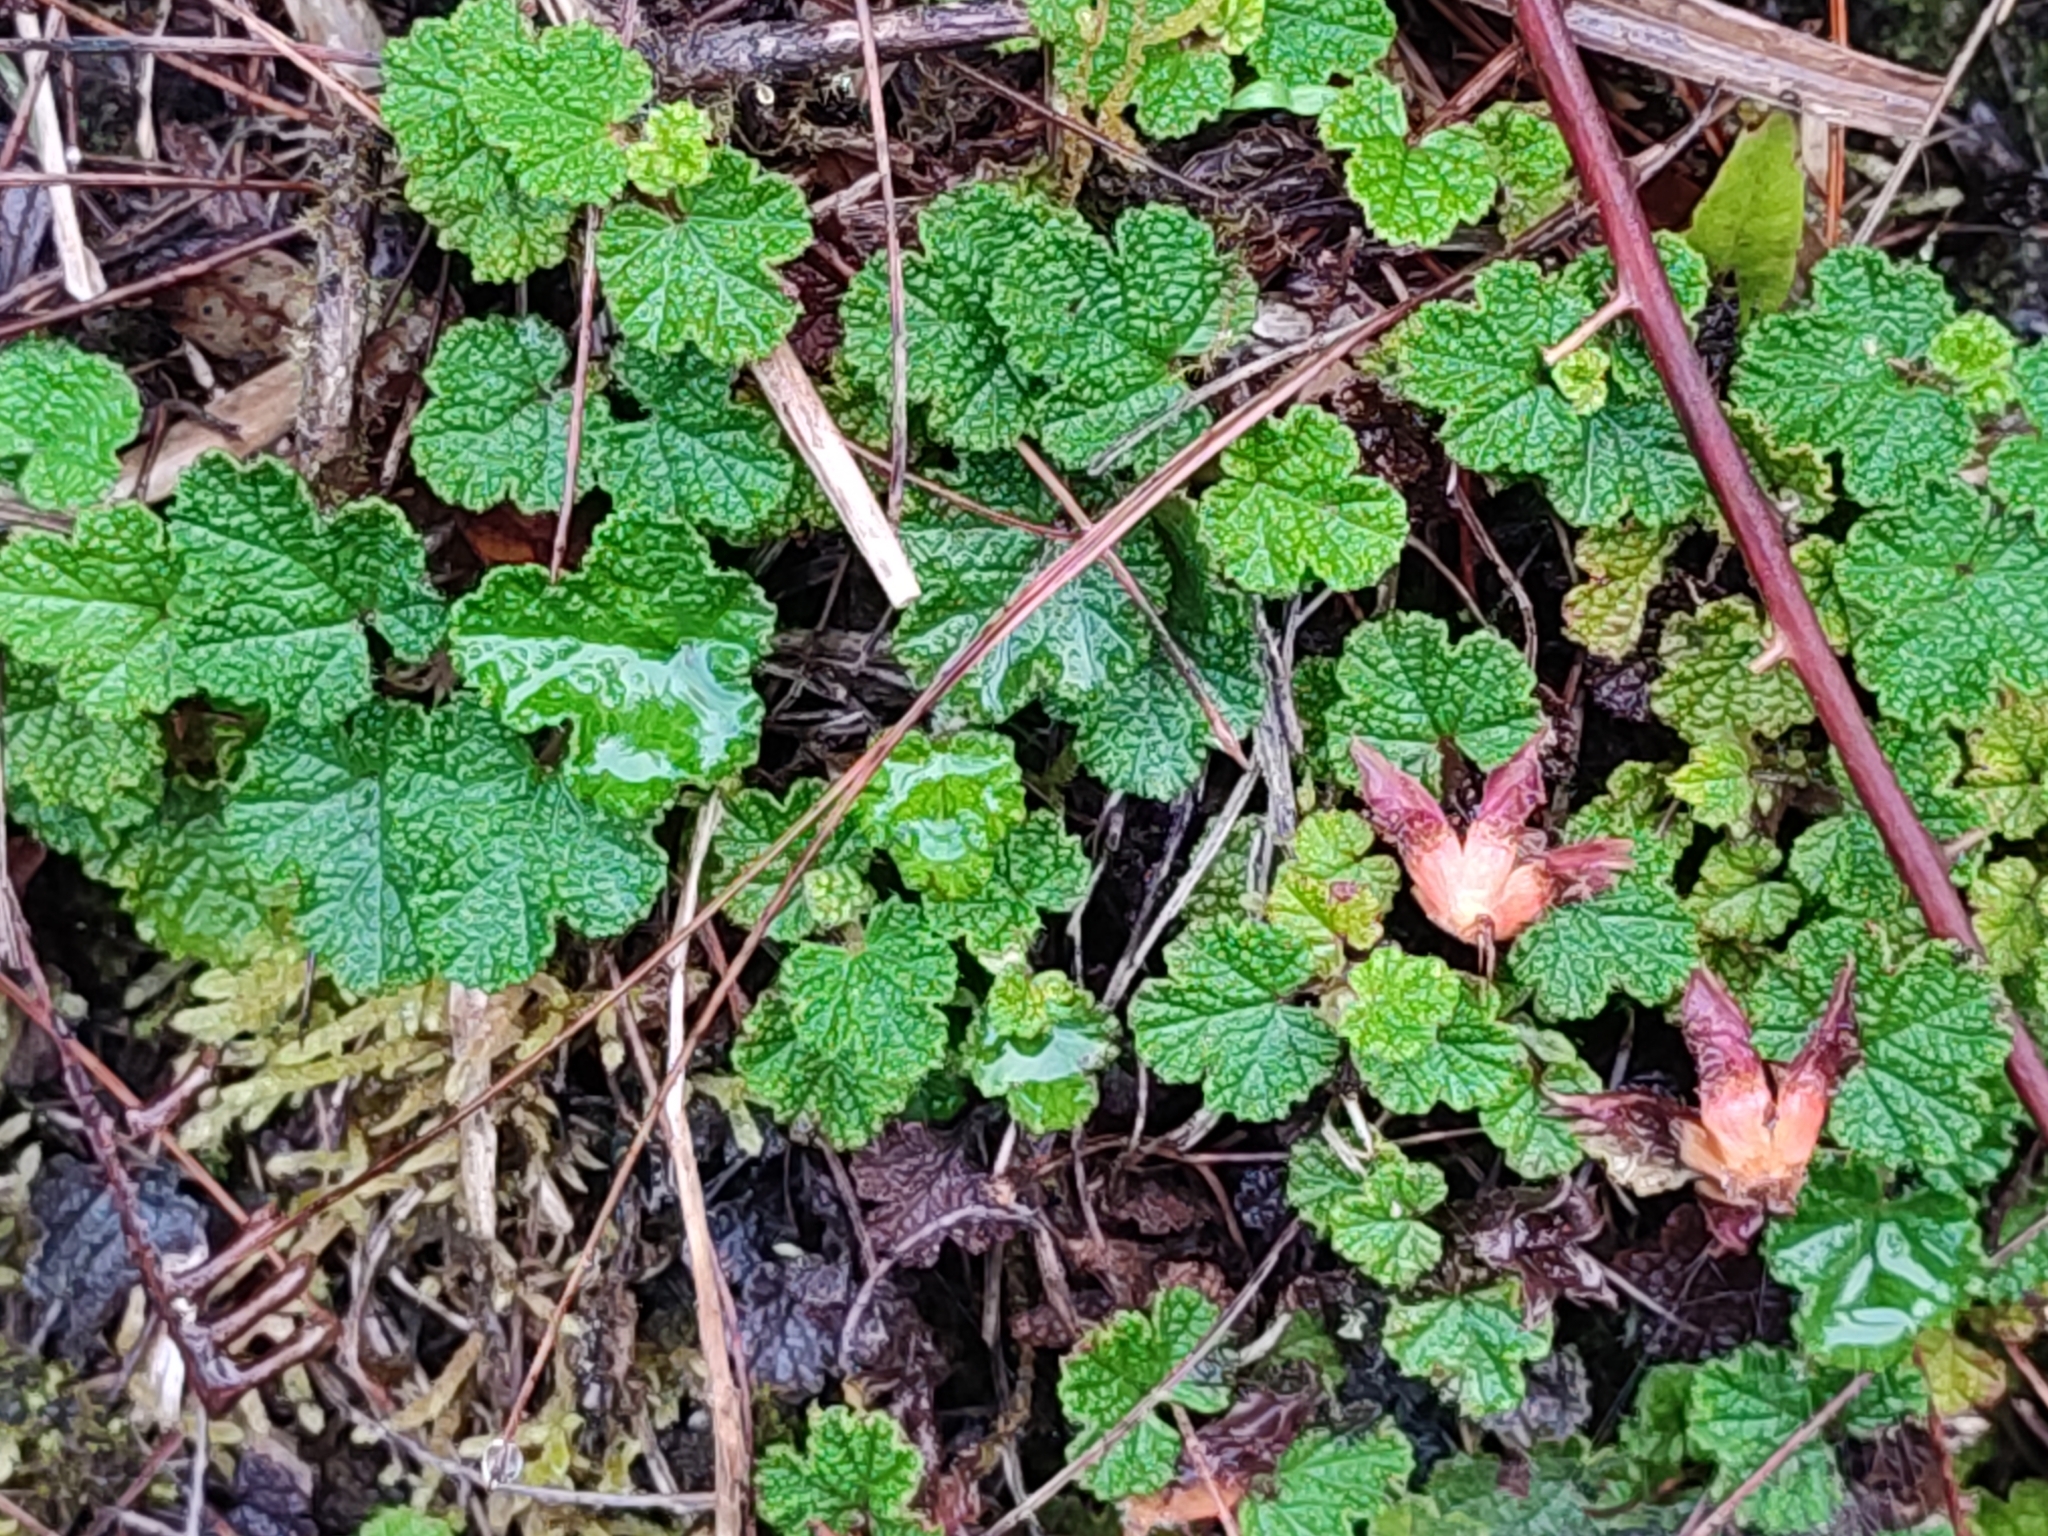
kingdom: Plantae
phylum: Tracheophyta
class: Magnoliopsida
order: Rosales
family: Rosaceae
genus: Rubus
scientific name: Rubus rolfei
